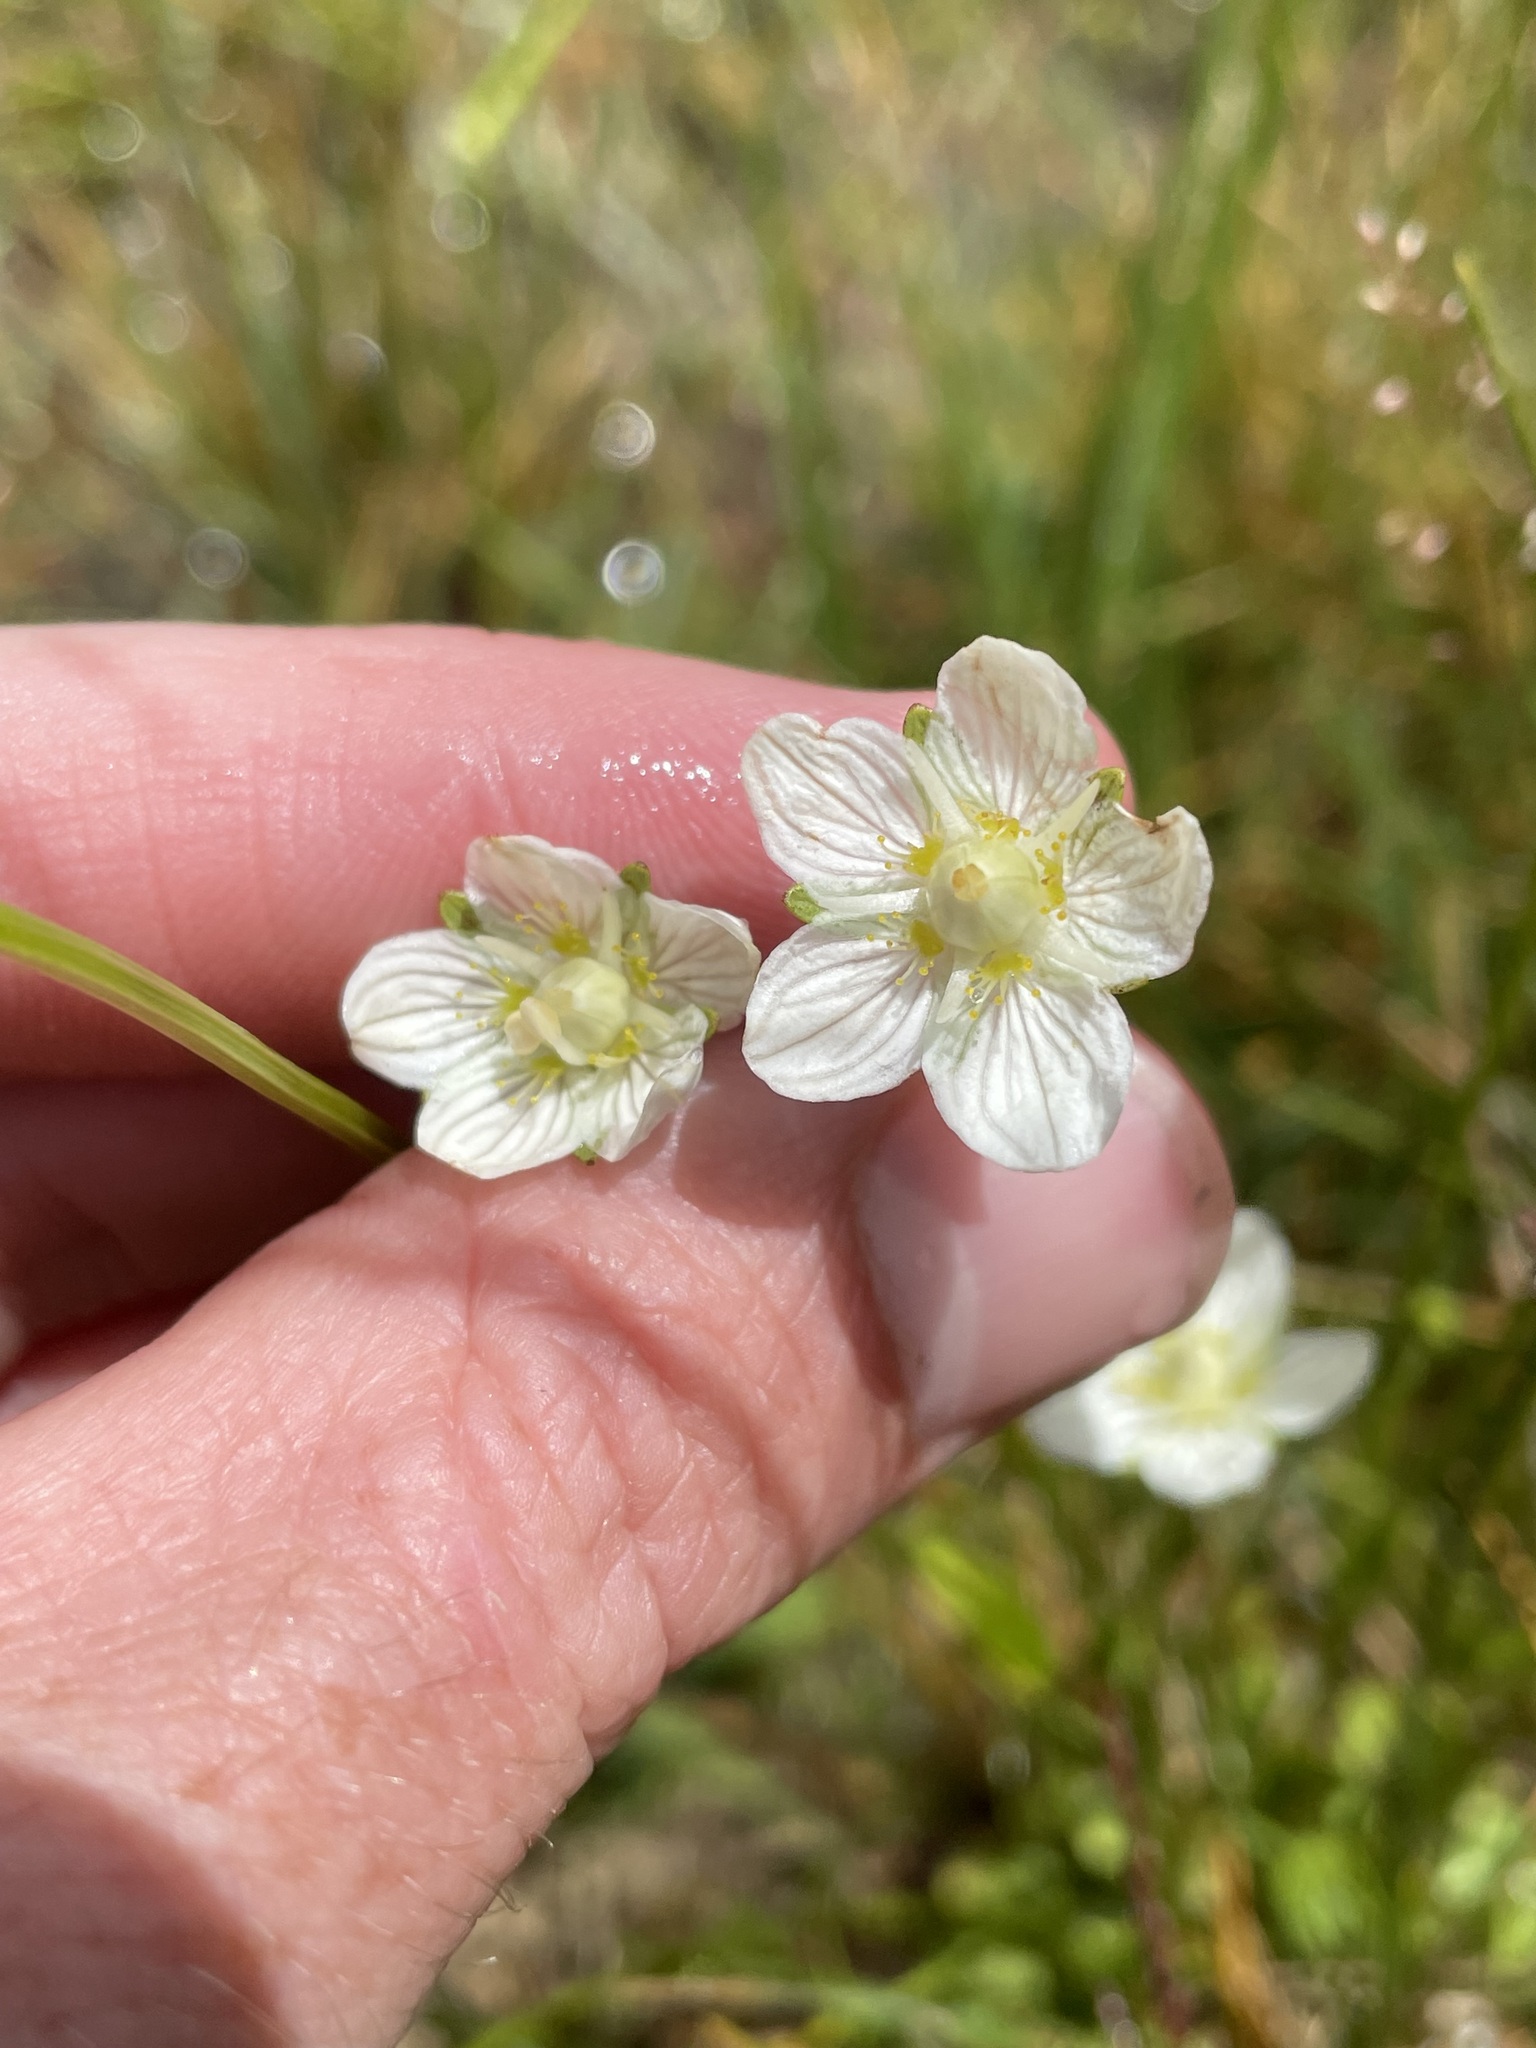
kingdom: Plantae
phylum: Tracheophyta
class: Magnoliopsida
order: Celastrales
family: Parnassiaceae
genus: Parnassia
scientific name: Parnassia parviflora
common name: Small-flowered grass-of-parnassus
